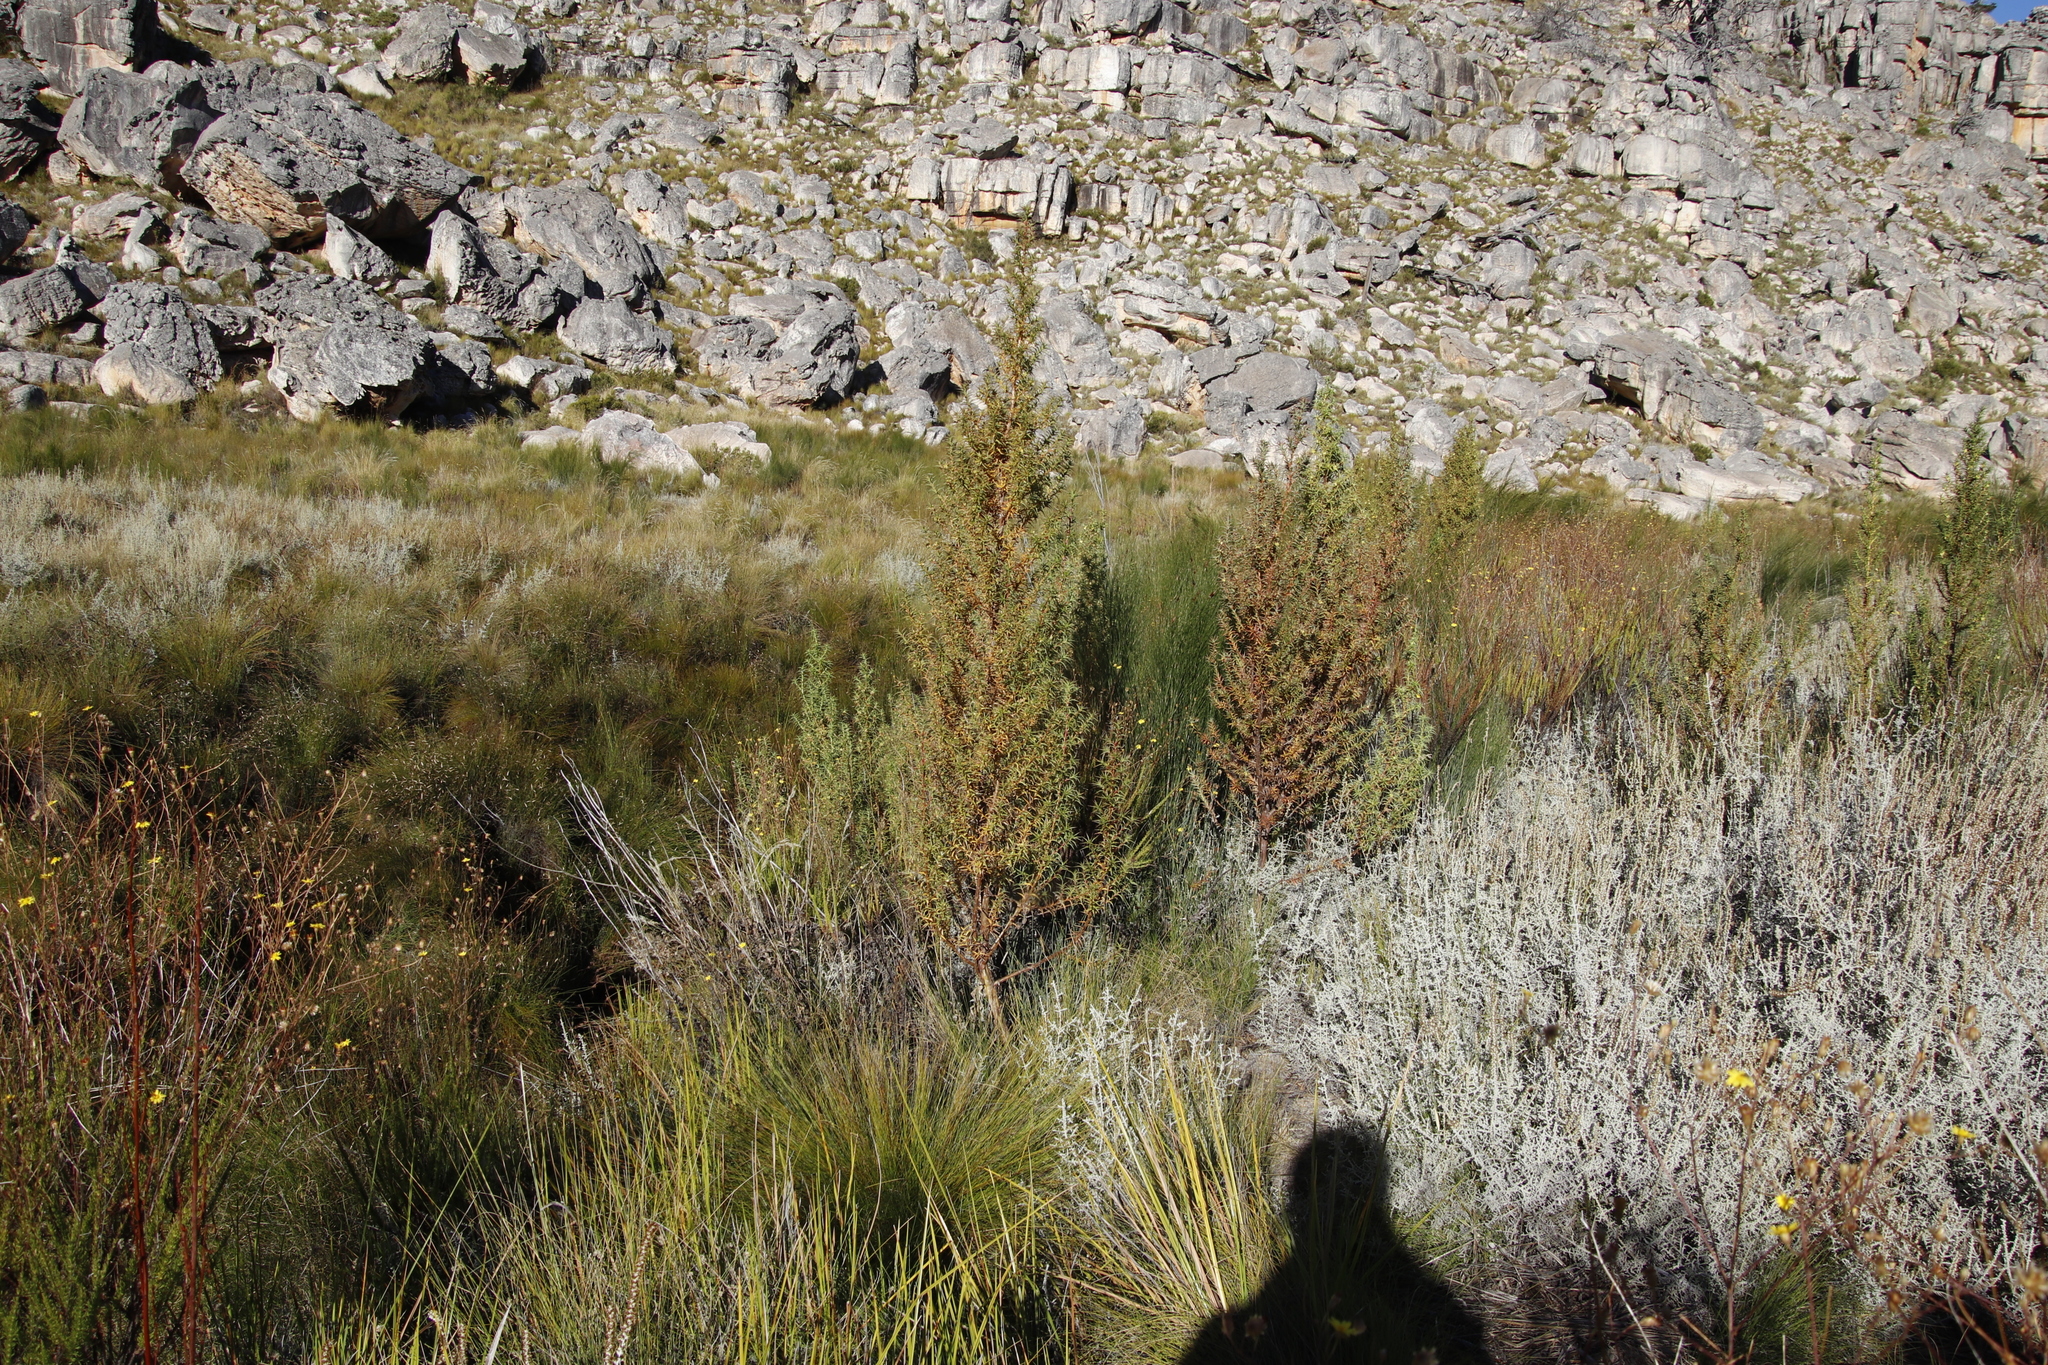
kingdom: Plantae
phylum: Tracheophyta
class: Magnoliopsida
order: Rosales
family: Rosaceae
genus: Cliffortia
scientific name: Cliffortia acanthophylla
